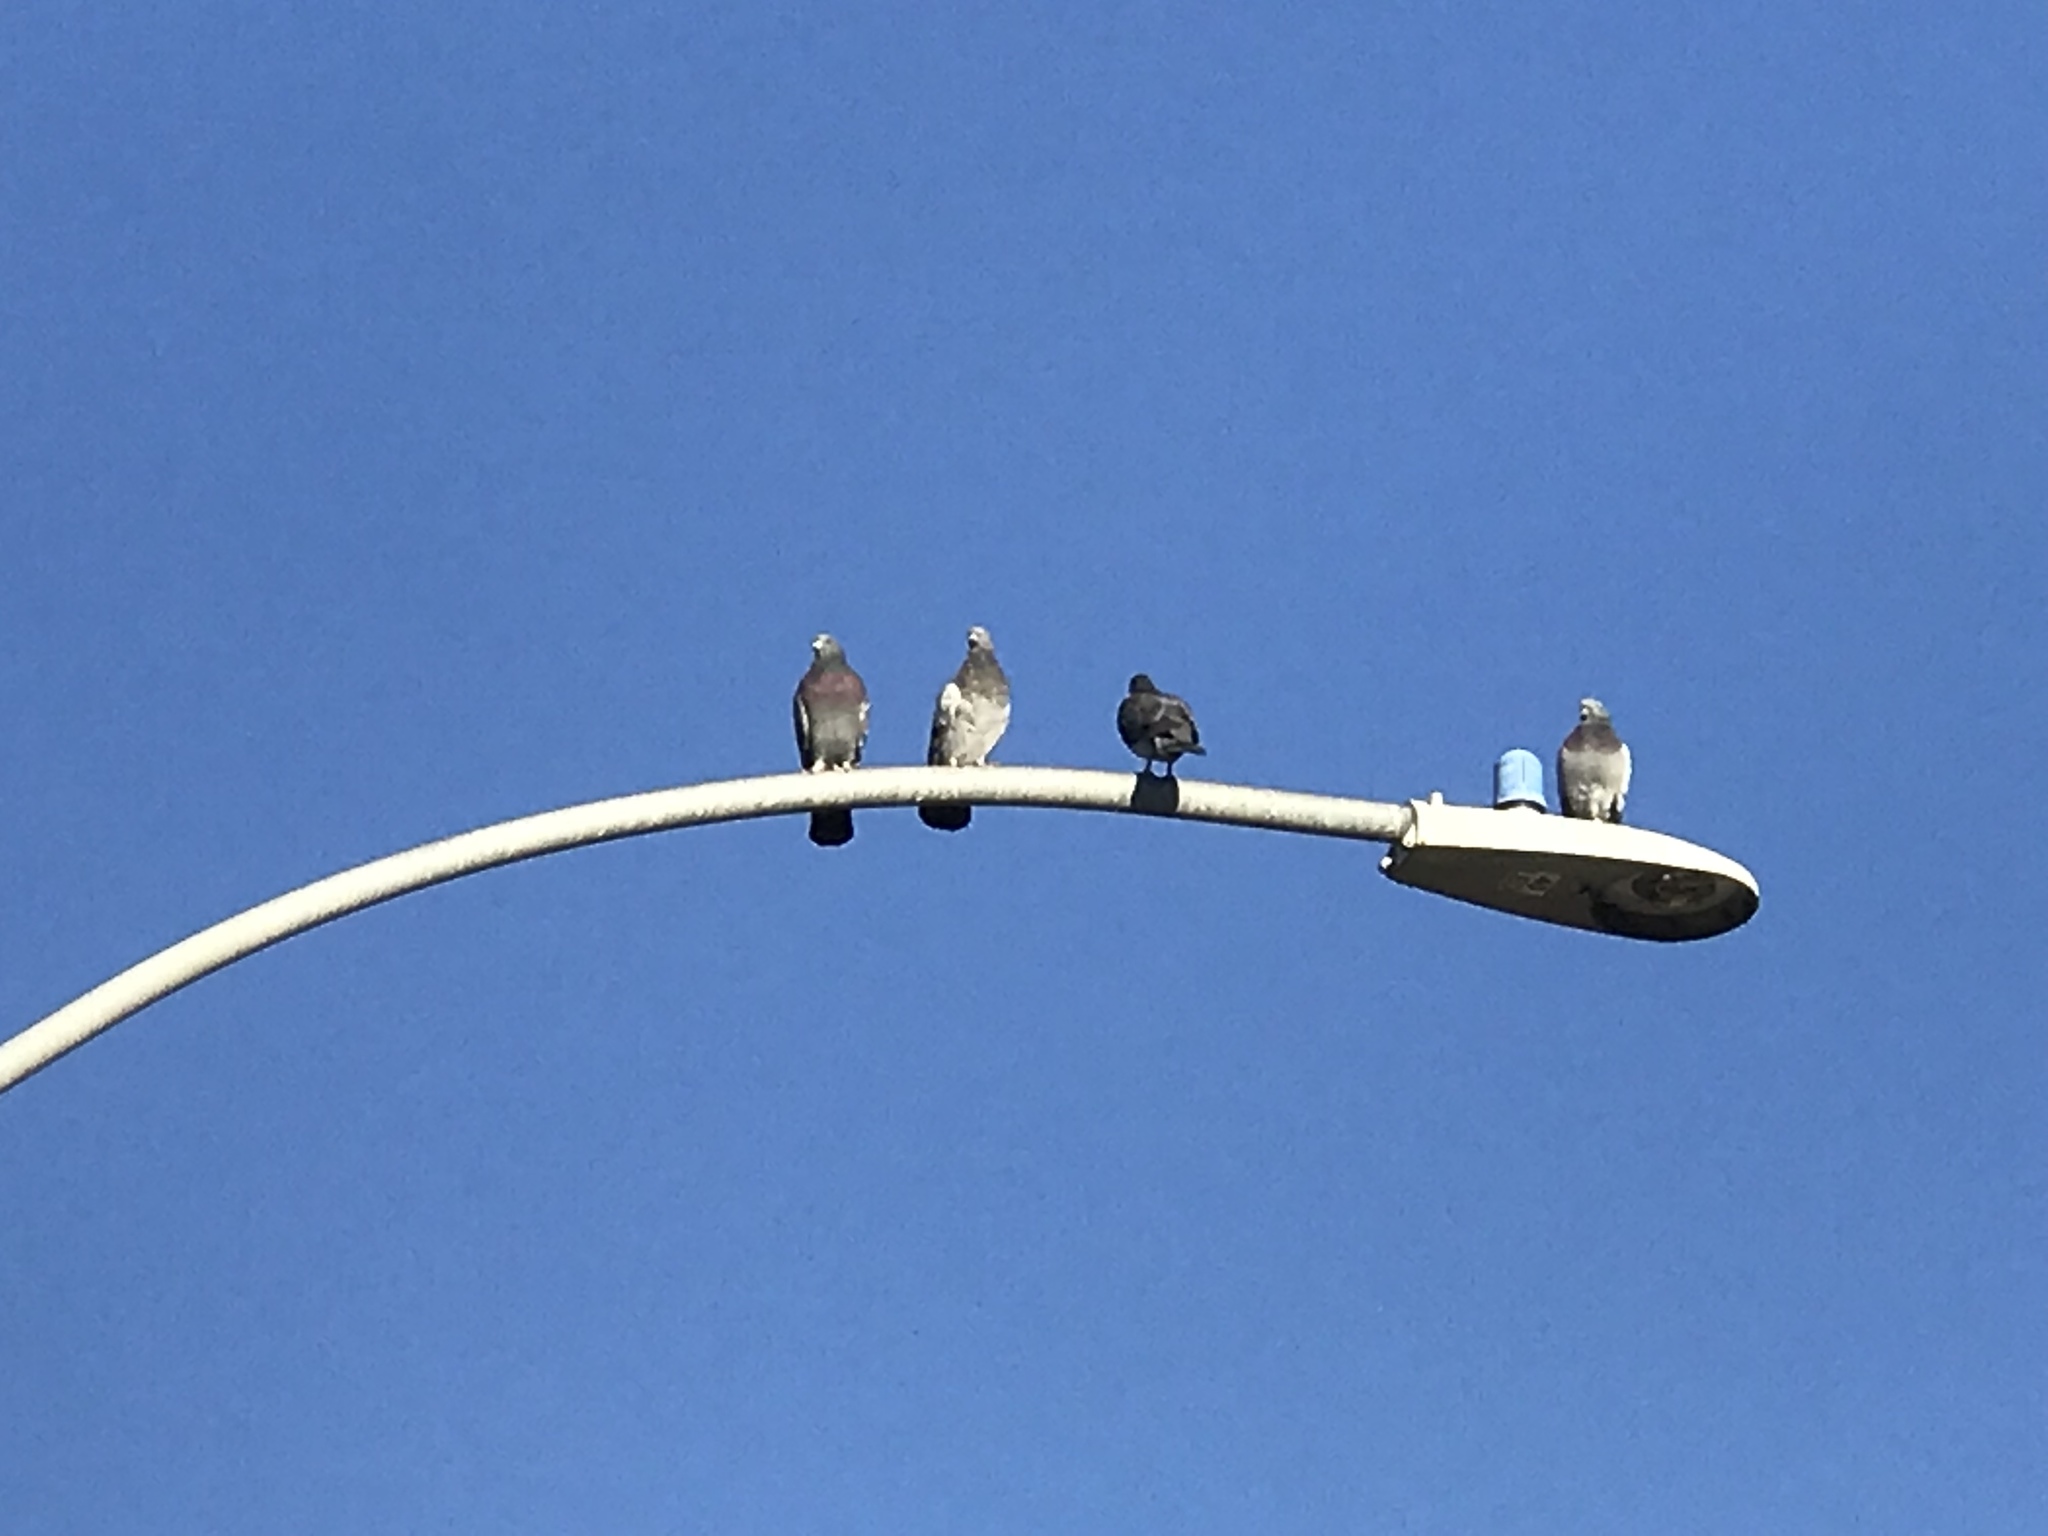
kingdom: Animalia
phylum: Chordata
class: Aves
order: Columbiformes
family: Columbidae
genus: Columba
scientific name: Columba livia
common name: Rock pigeon
